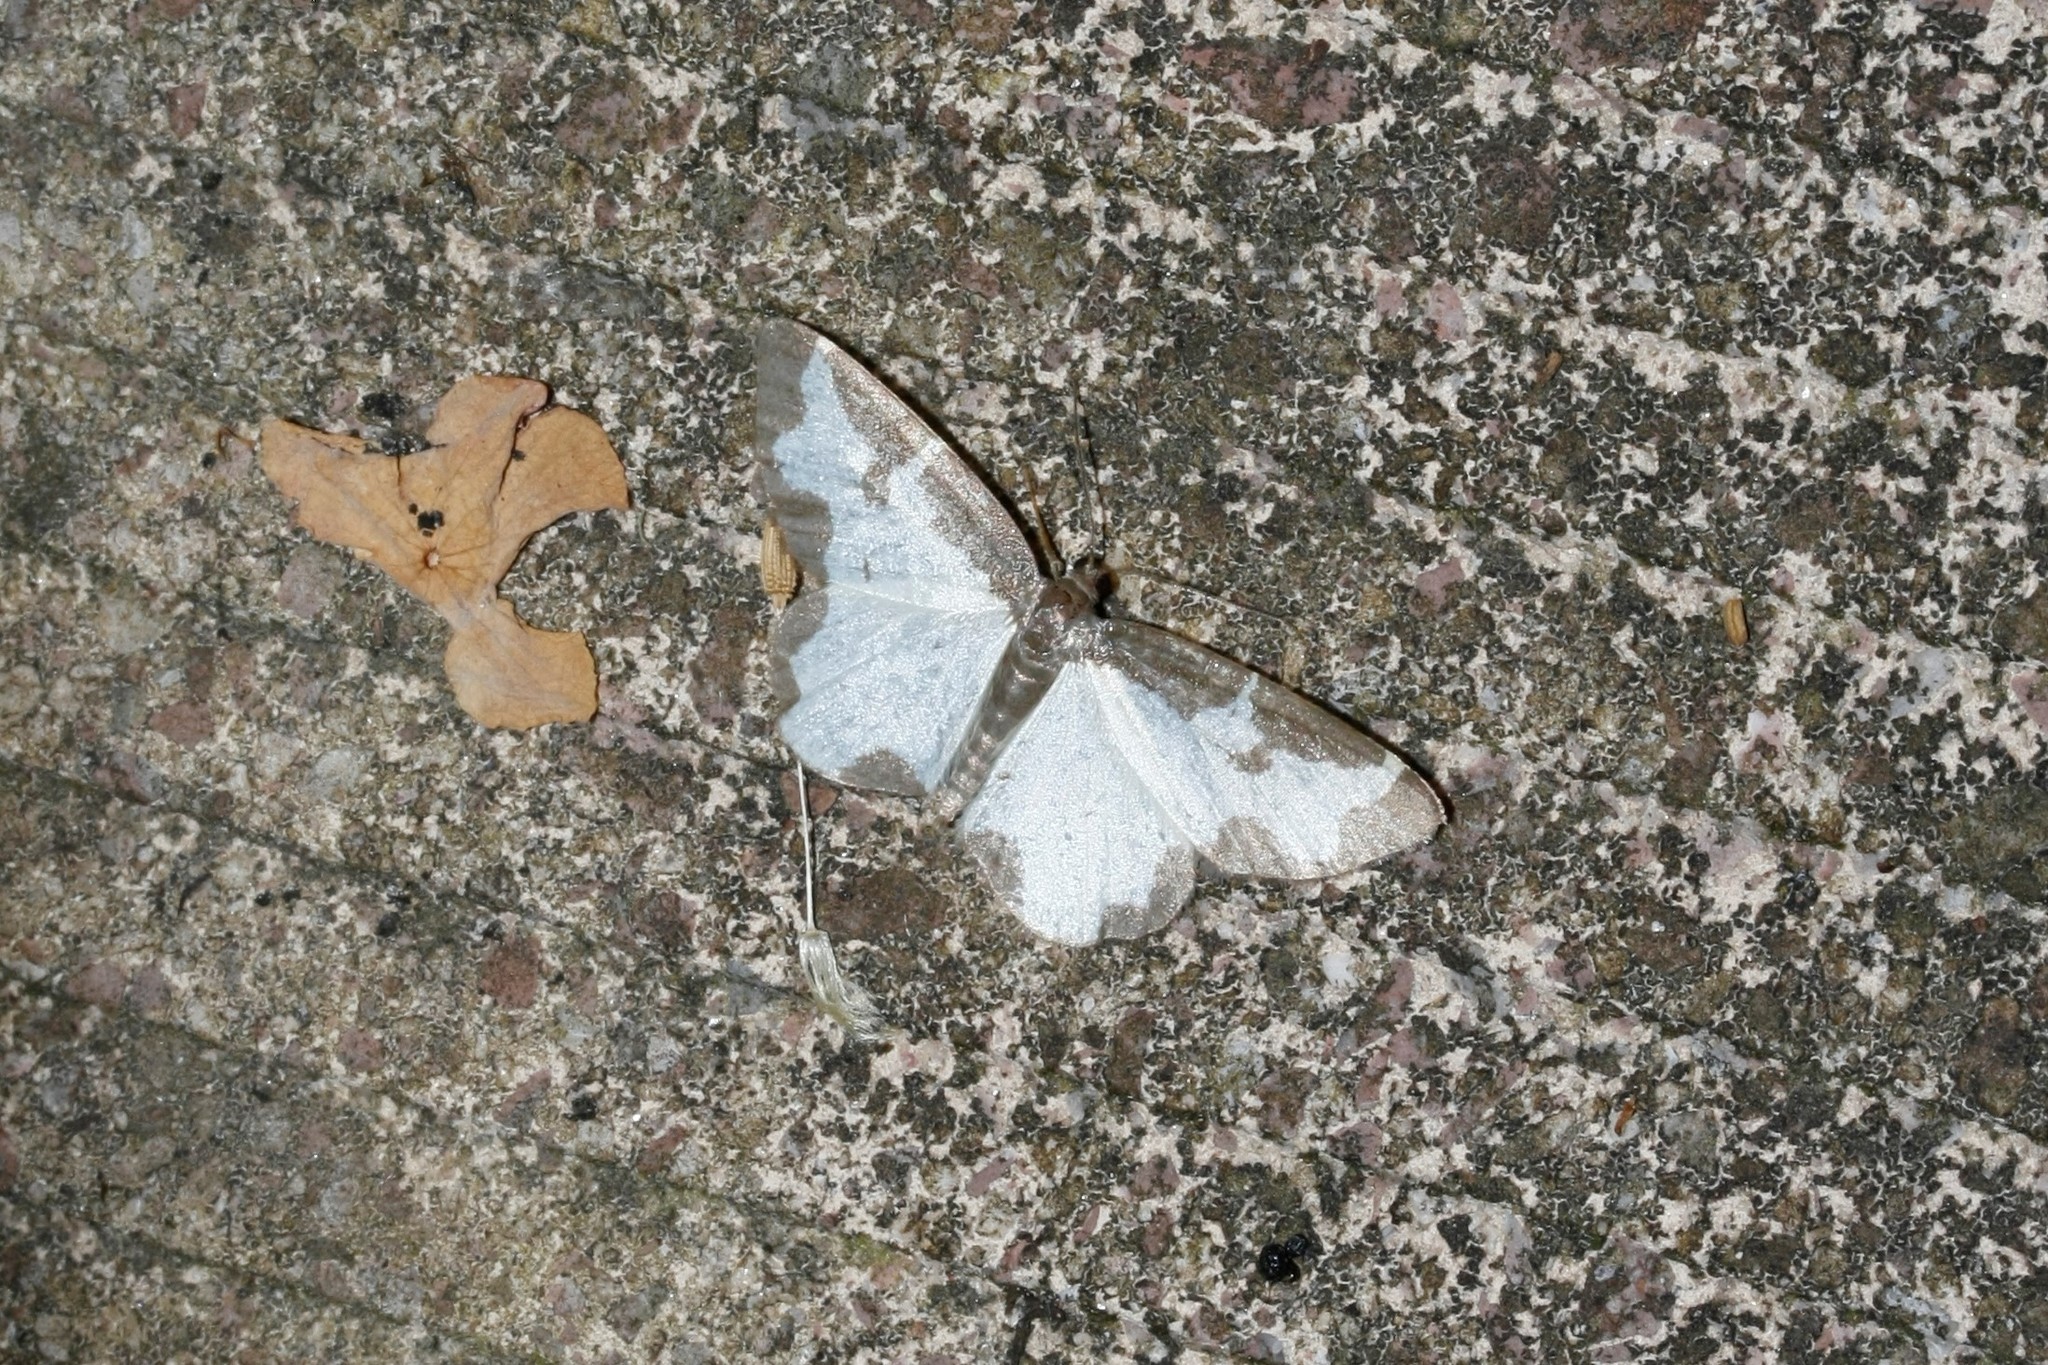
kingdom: Animalia
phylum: Arthropoda
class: Insecta
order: Lepidoptera
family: Geometridae
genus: Lomaspilis
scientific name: Lomaspilis marginata
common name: Clouded border
